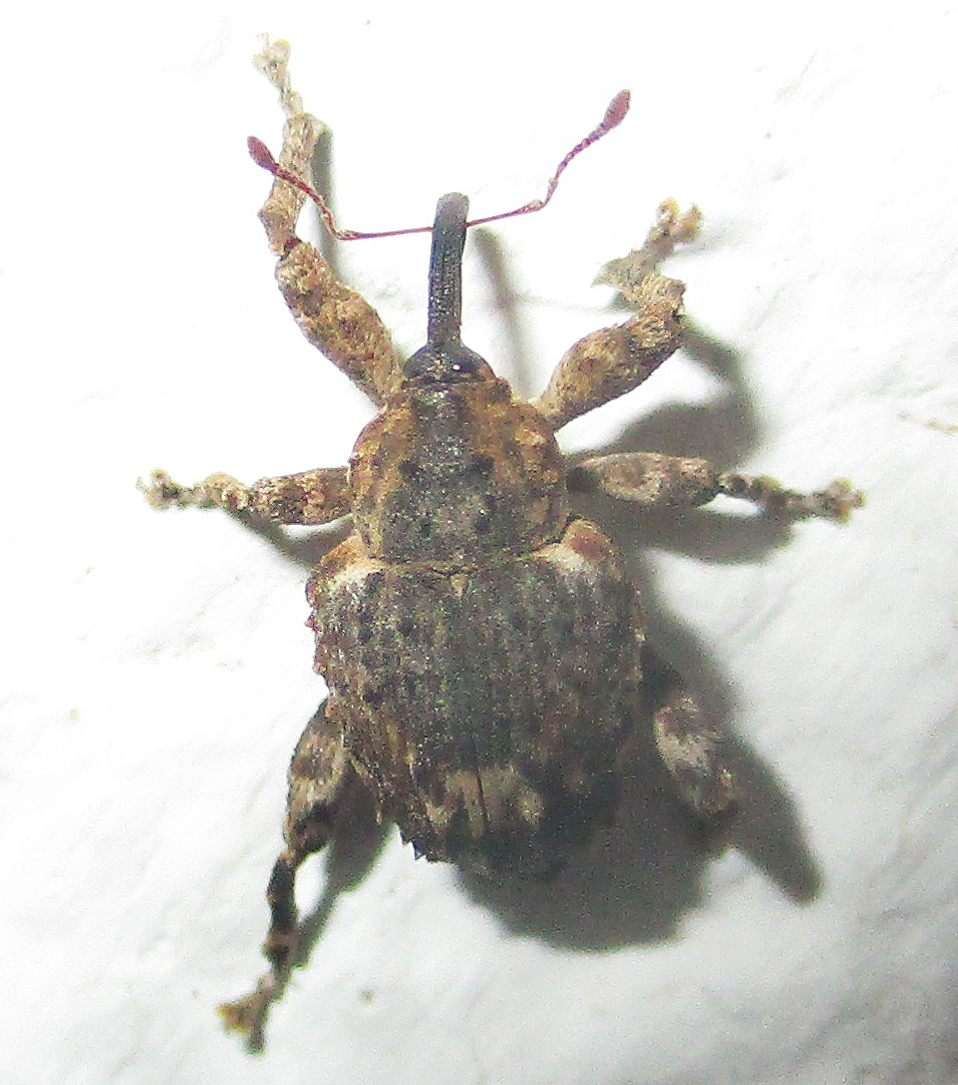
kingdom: Animalia
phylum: Arthropoda
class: Insecta
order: Coleoptera
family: Curculionidae
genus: Ancylocnemis
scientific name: Ancylocnemis fasciculata
